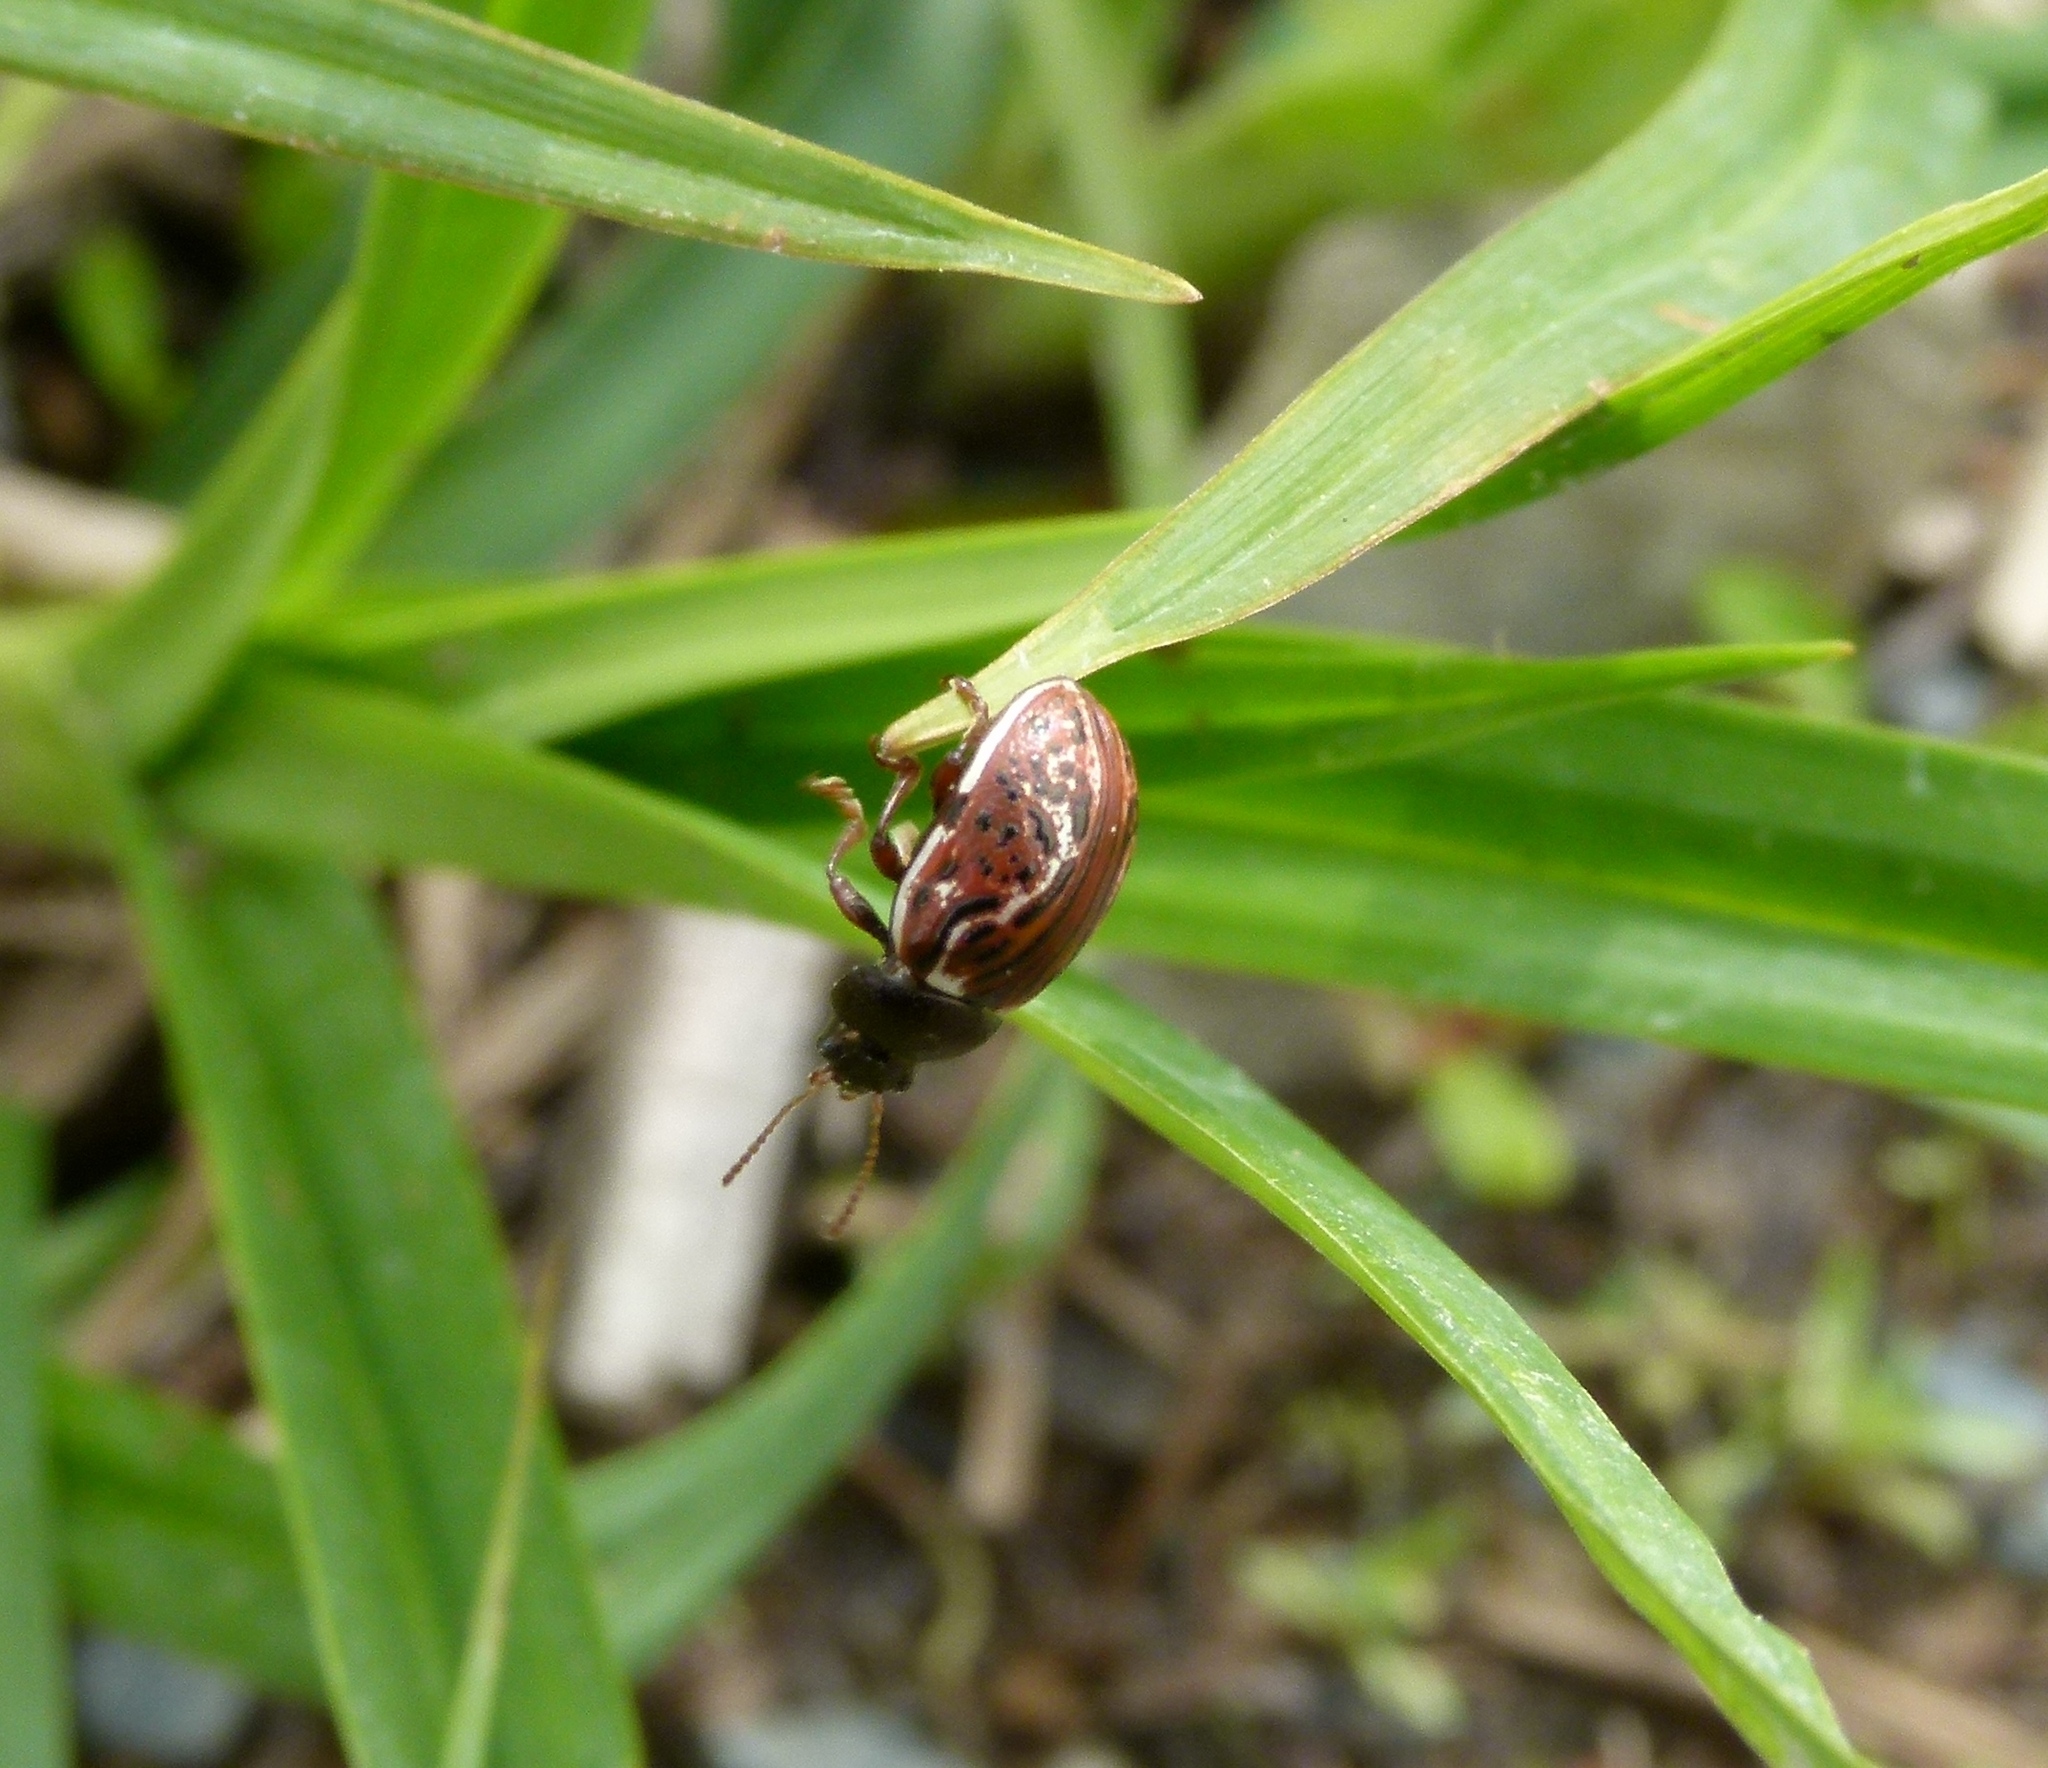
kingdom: Animalia
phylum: Arthropoda
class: Insecta
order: Coleoptera
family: Chrysomelidae
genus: Calligrapha
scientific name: Calligrapha alni
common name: Russet alder leaf beetle
